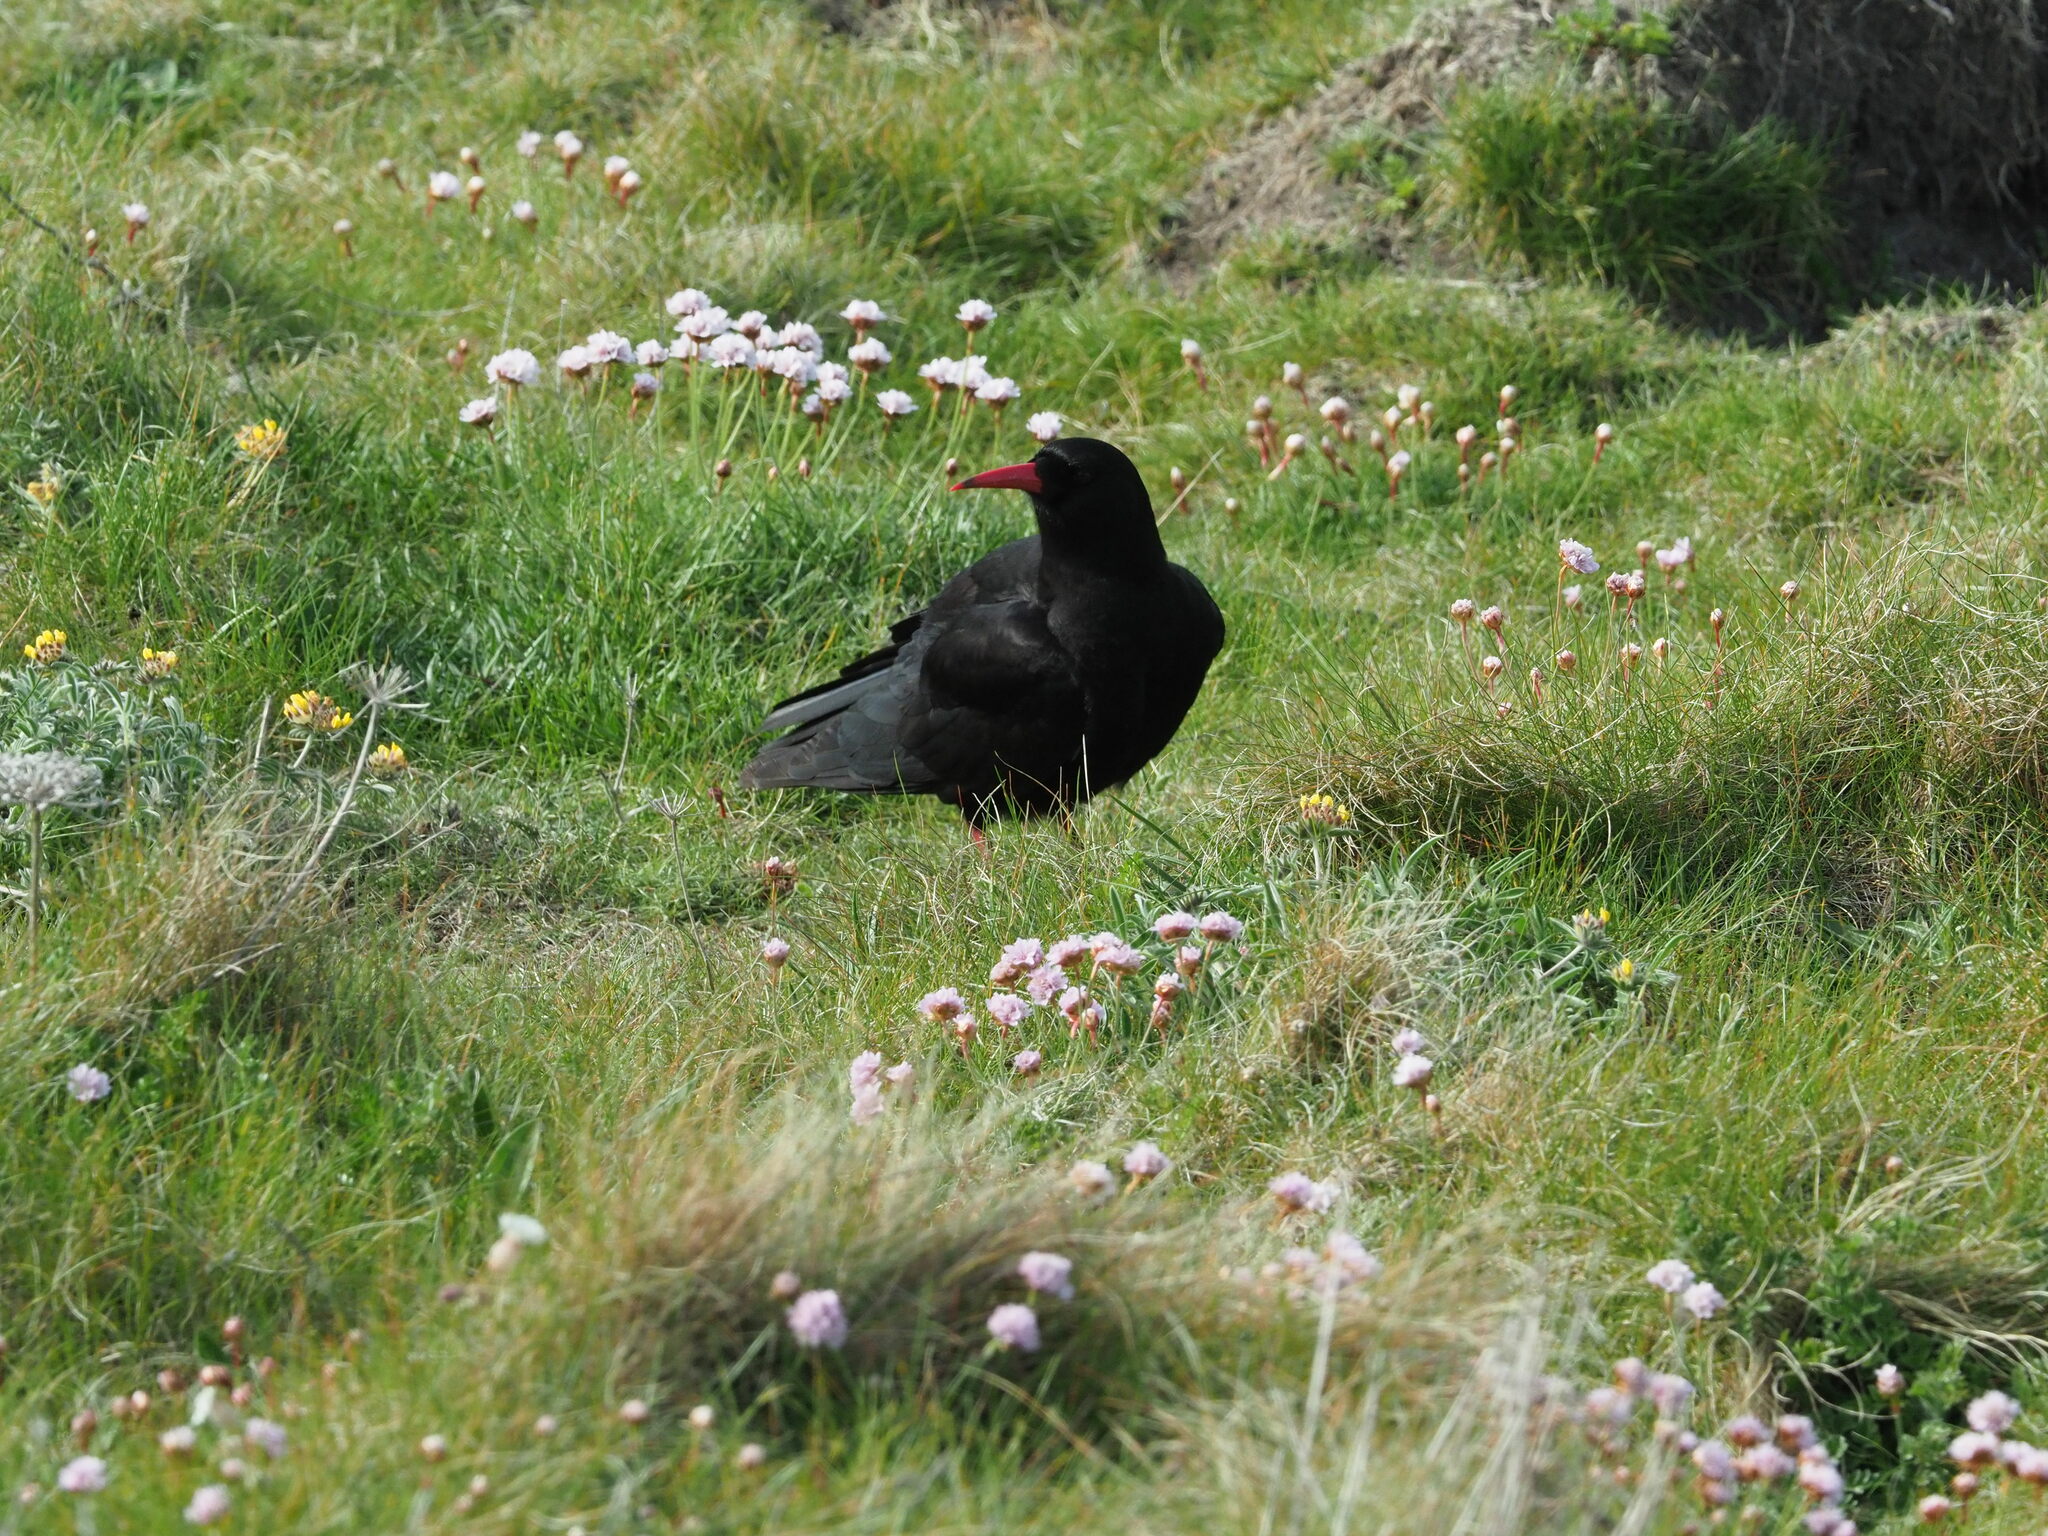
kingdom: Animalia
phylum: Chordata
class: Aves
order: Passeriformes
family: Corvidae
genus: Pyrrhocorax
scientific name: Pyrrhocorax pyrrhocorax
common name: Red-billed chough
